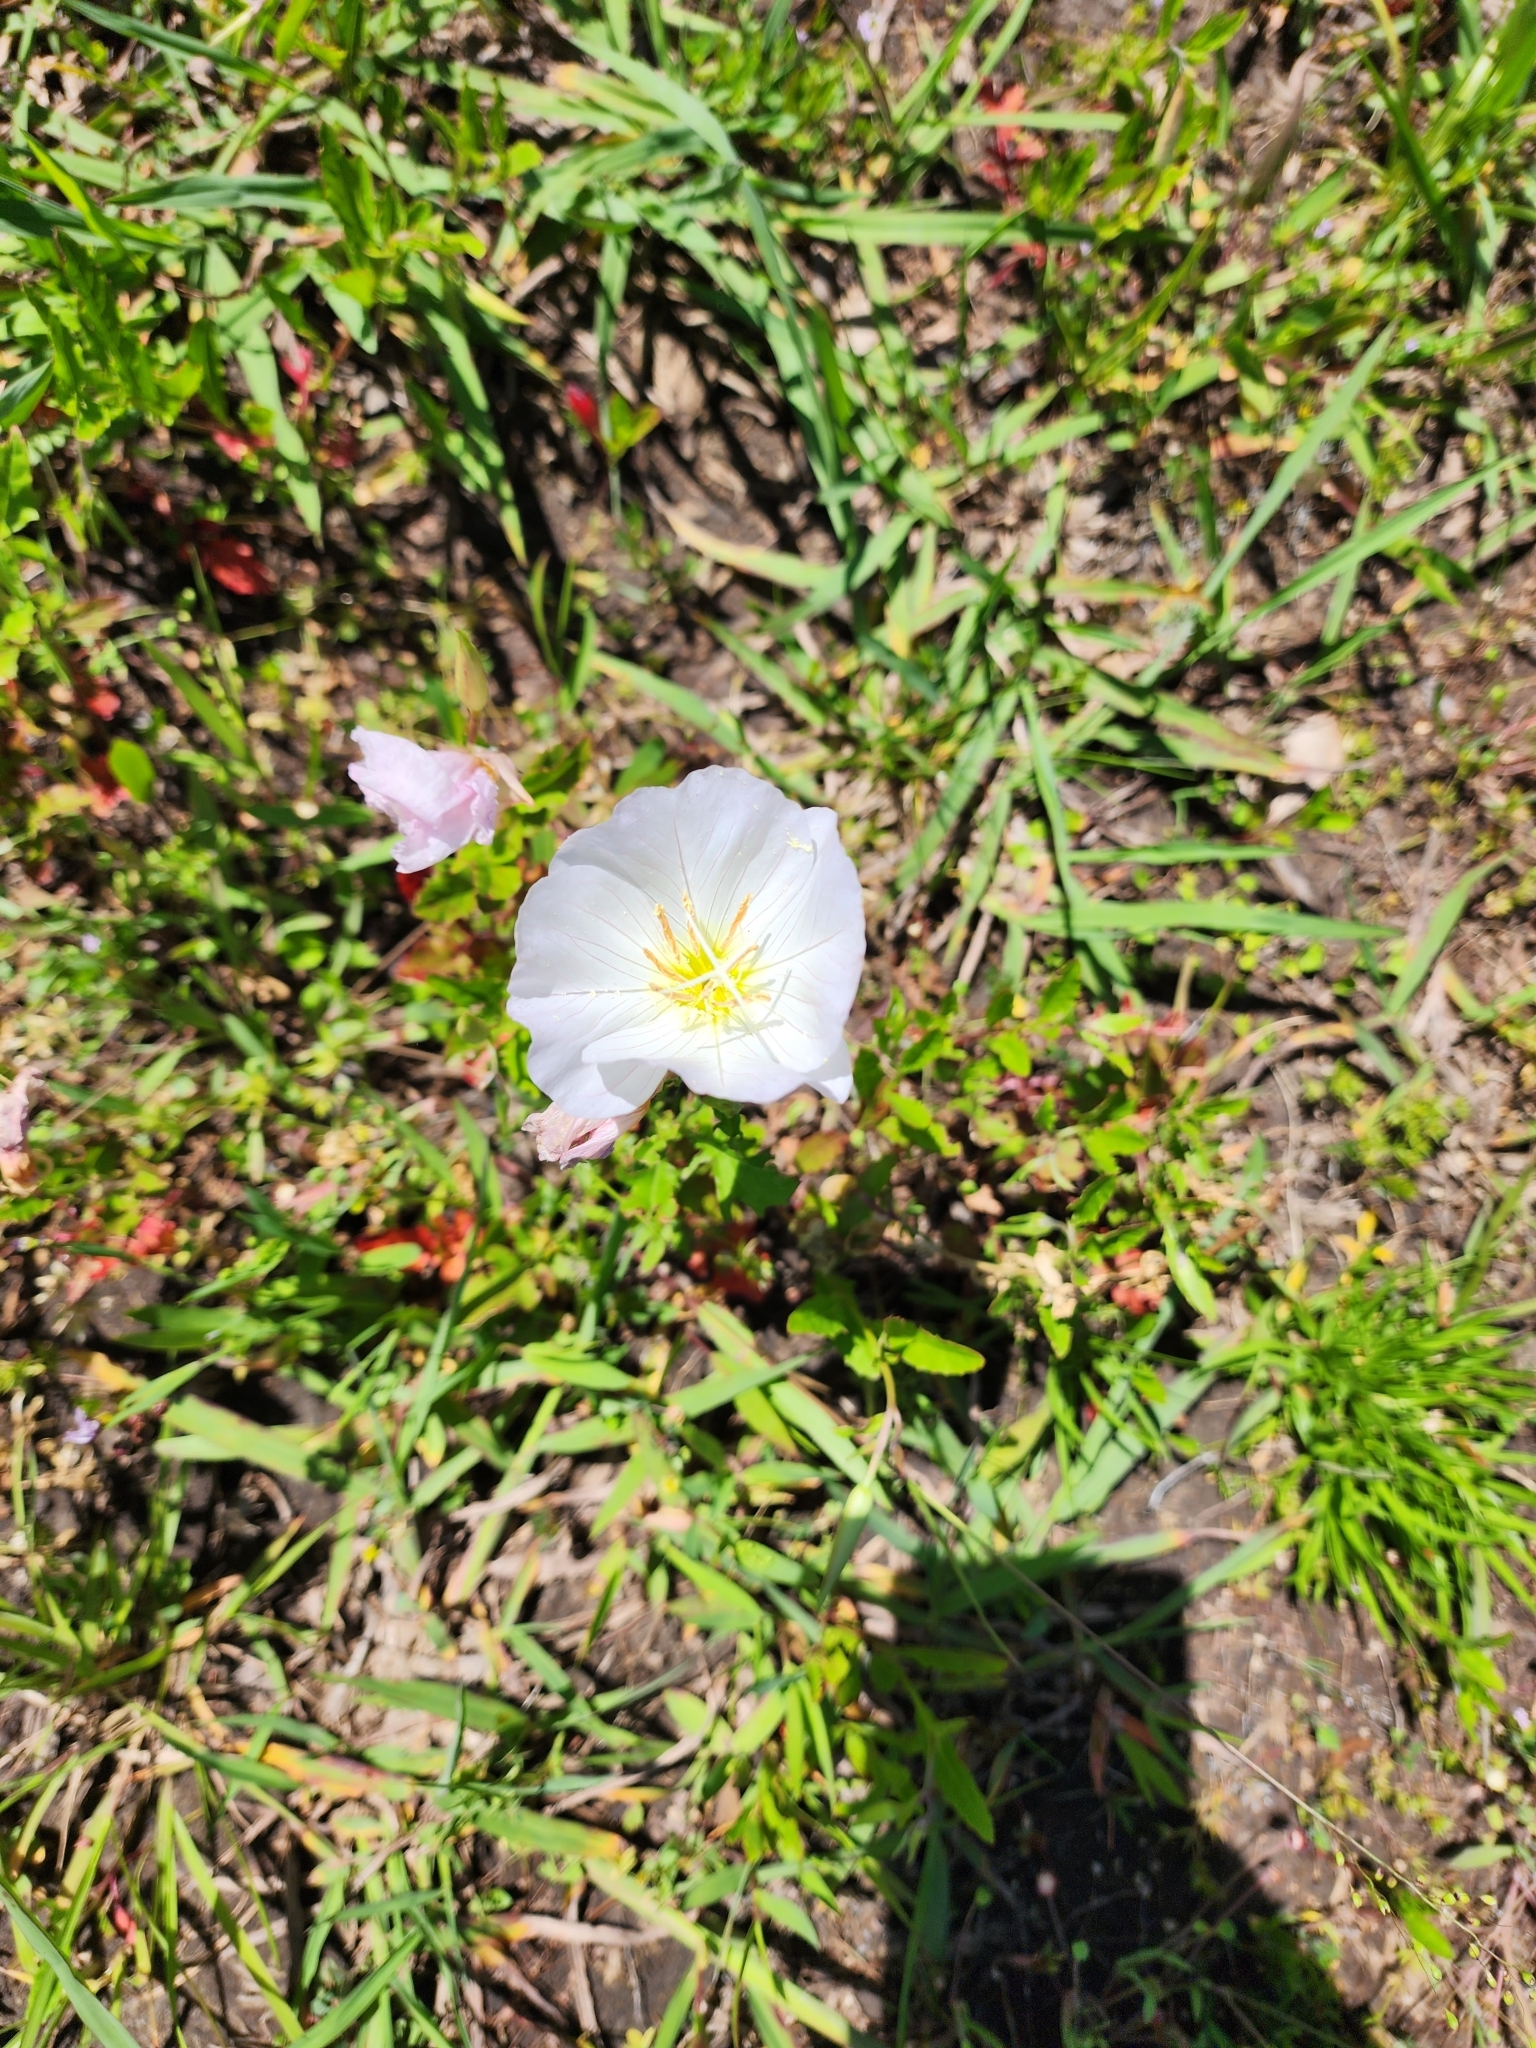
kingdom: Plantae
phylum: Tracheophyta
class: Magnoliopsida
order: Myrtales
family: Onagraceae
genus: Oenothera
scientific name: Oenothera speciosa
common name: White evening-primrose
